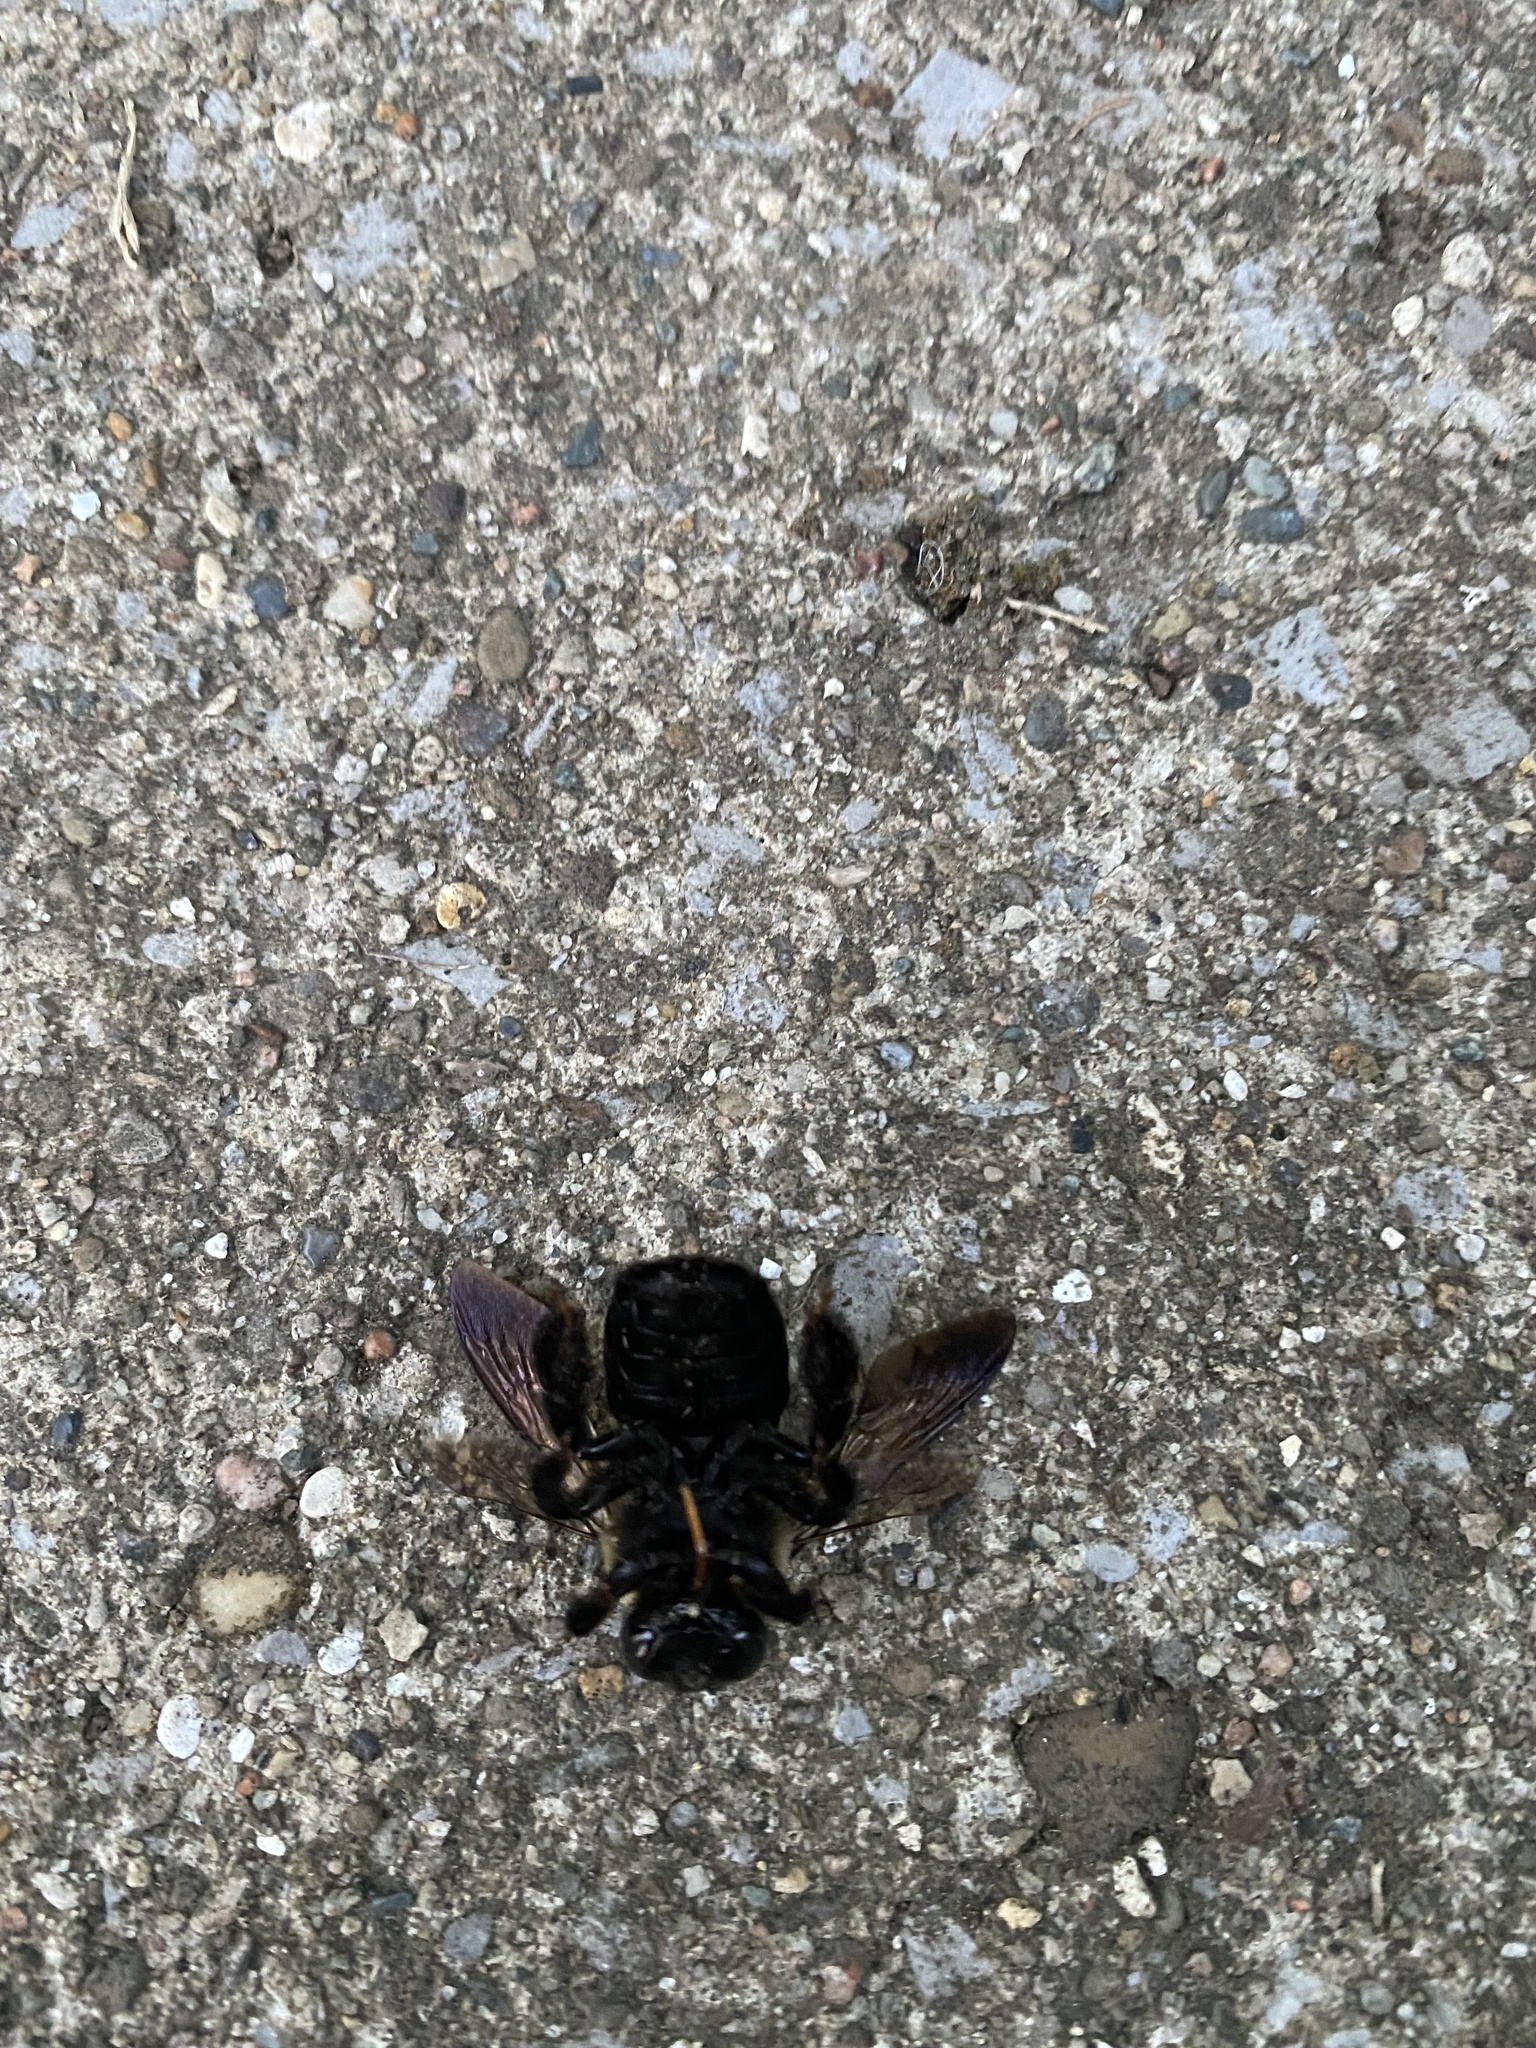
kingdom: Animalia
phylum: Arthropoda
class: Insecta
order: Hymenoptera
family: Apidae
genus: Xylocopa
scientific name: Xylocopa virginica
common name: Carpenter bee
